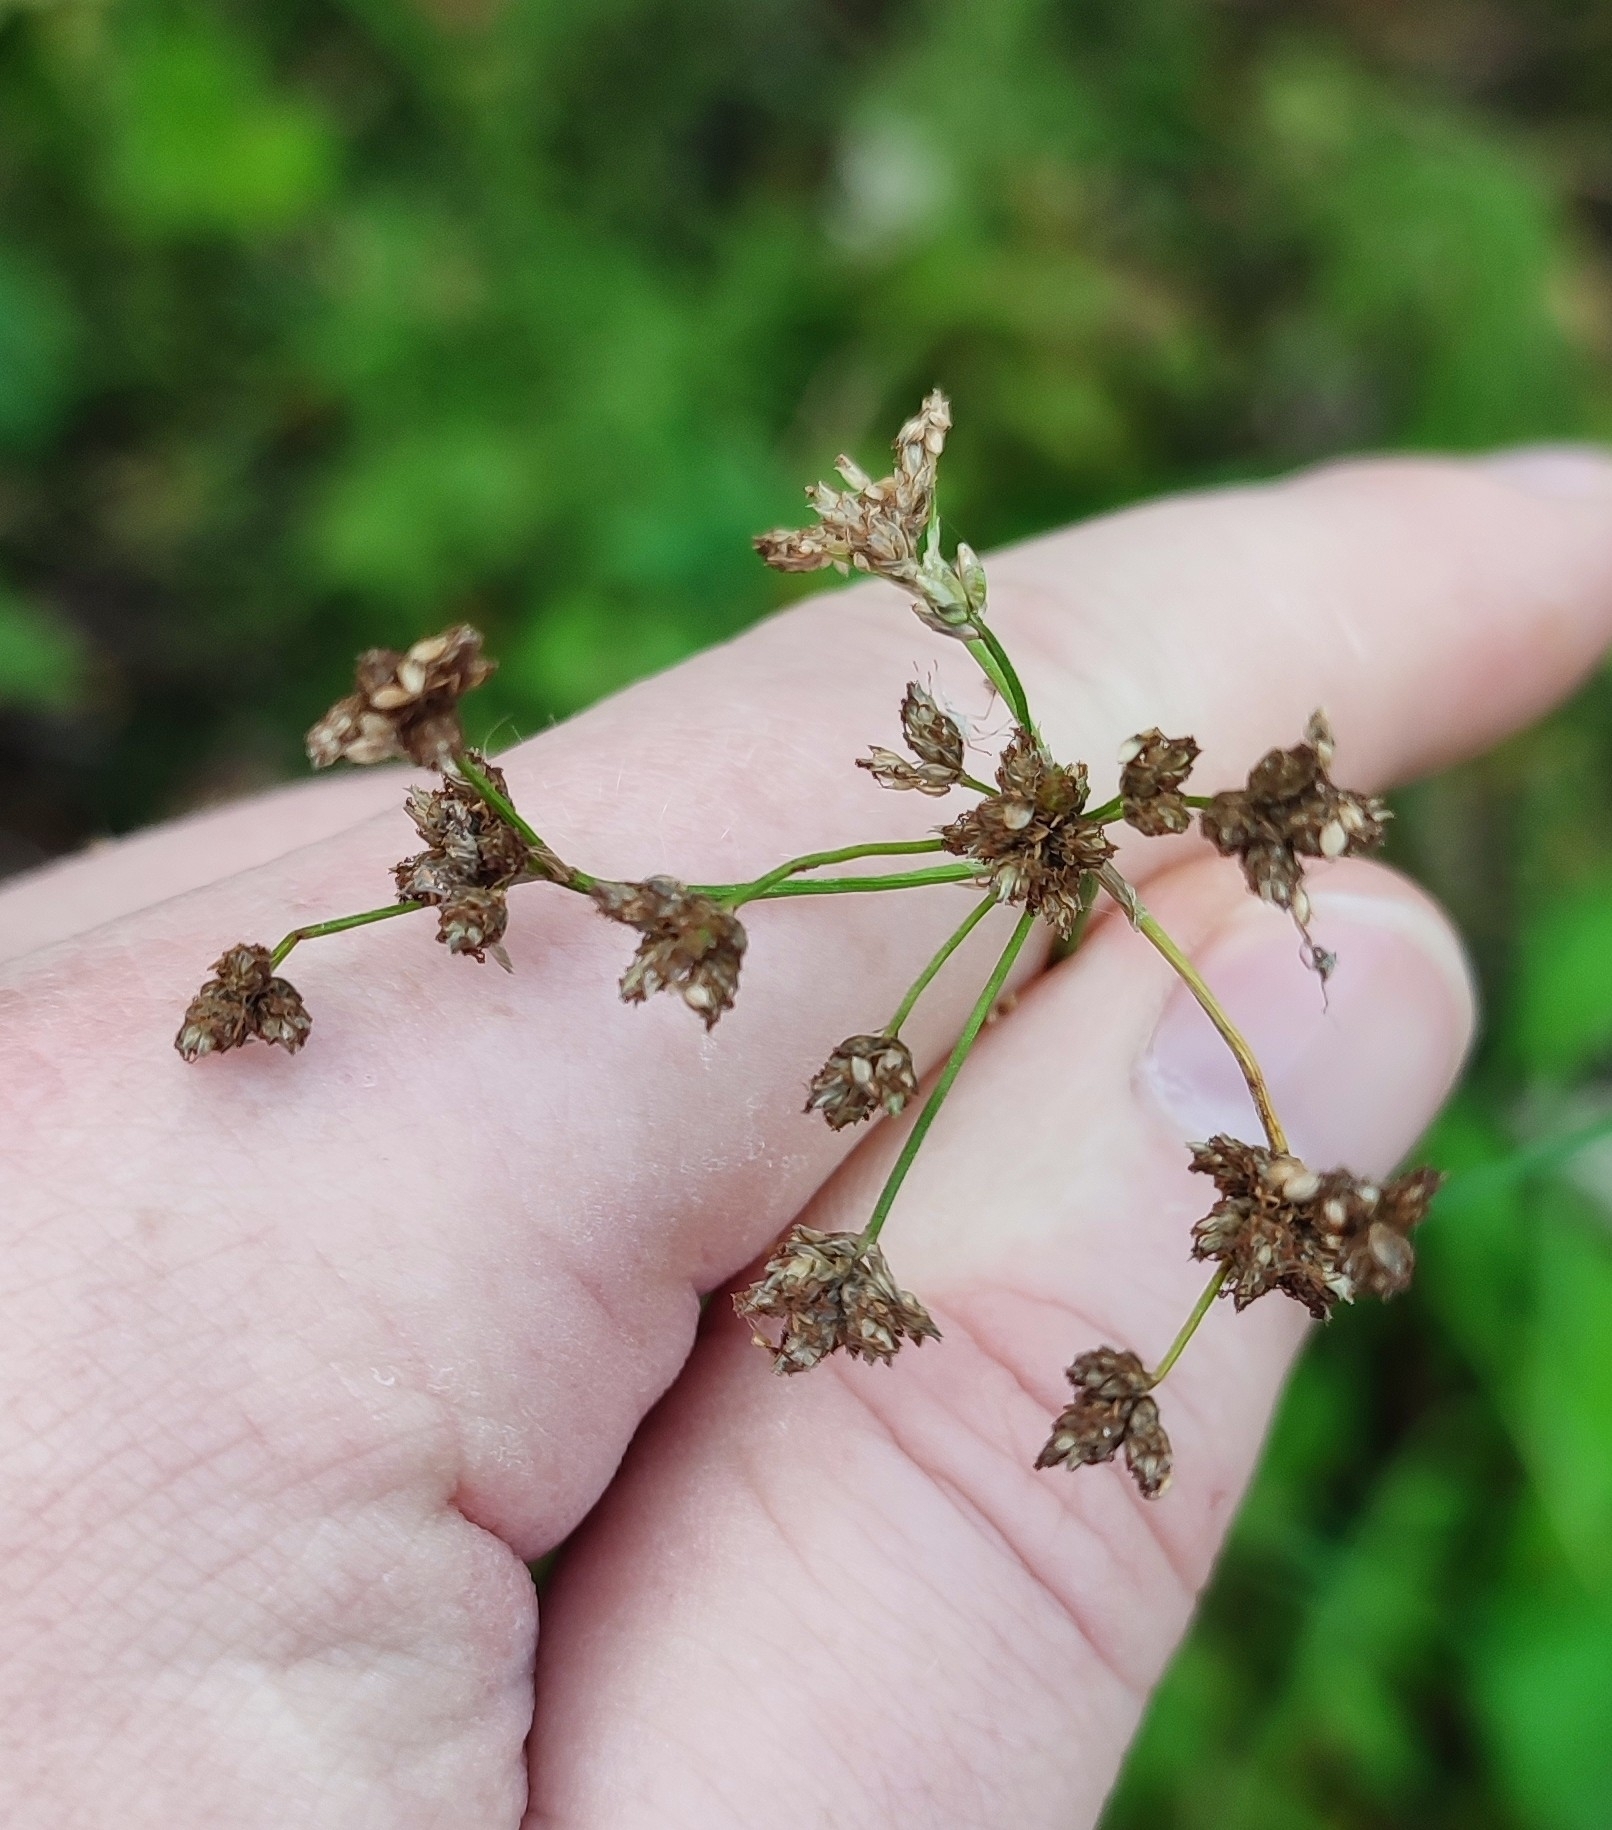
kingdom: Plantae
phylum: Tracheophyta
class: Liliopsida
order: Poales
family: Cyperaceae
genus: Scirpus
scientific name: Scirpus sylvaticus
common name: Wood club-rush
